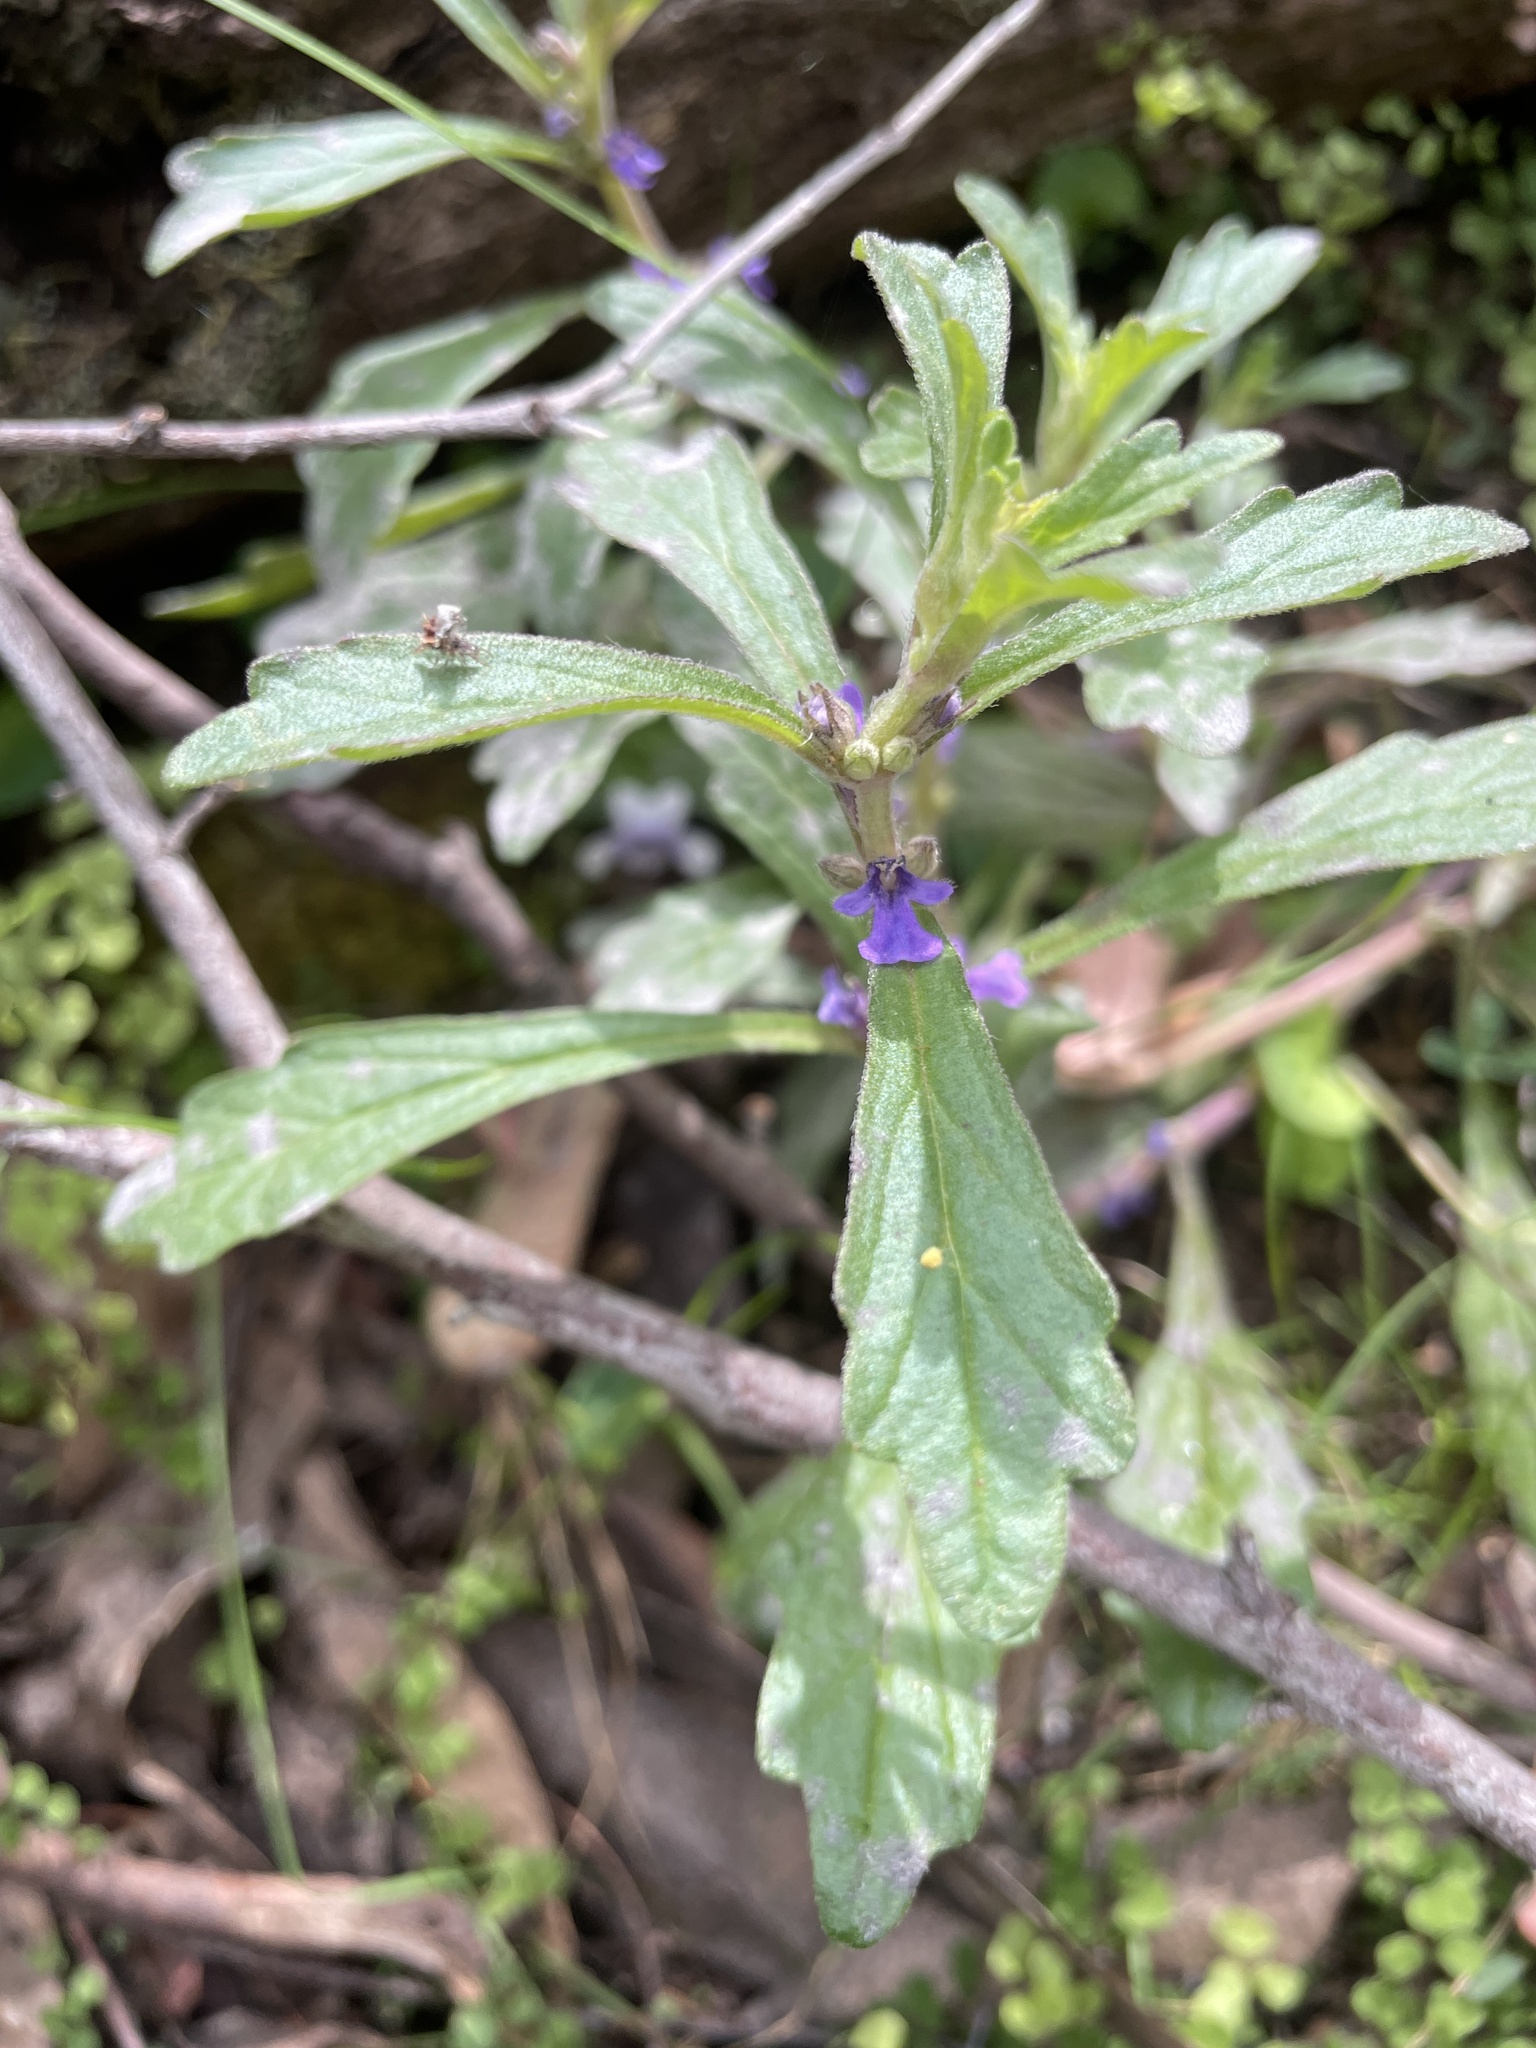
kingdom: Plantae
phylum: Tracheophyta
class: Magnoliopsida
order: Lamiales
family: Lamiaceae
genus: Ajuga
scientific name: Ajuga australis
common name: Australian bugle
